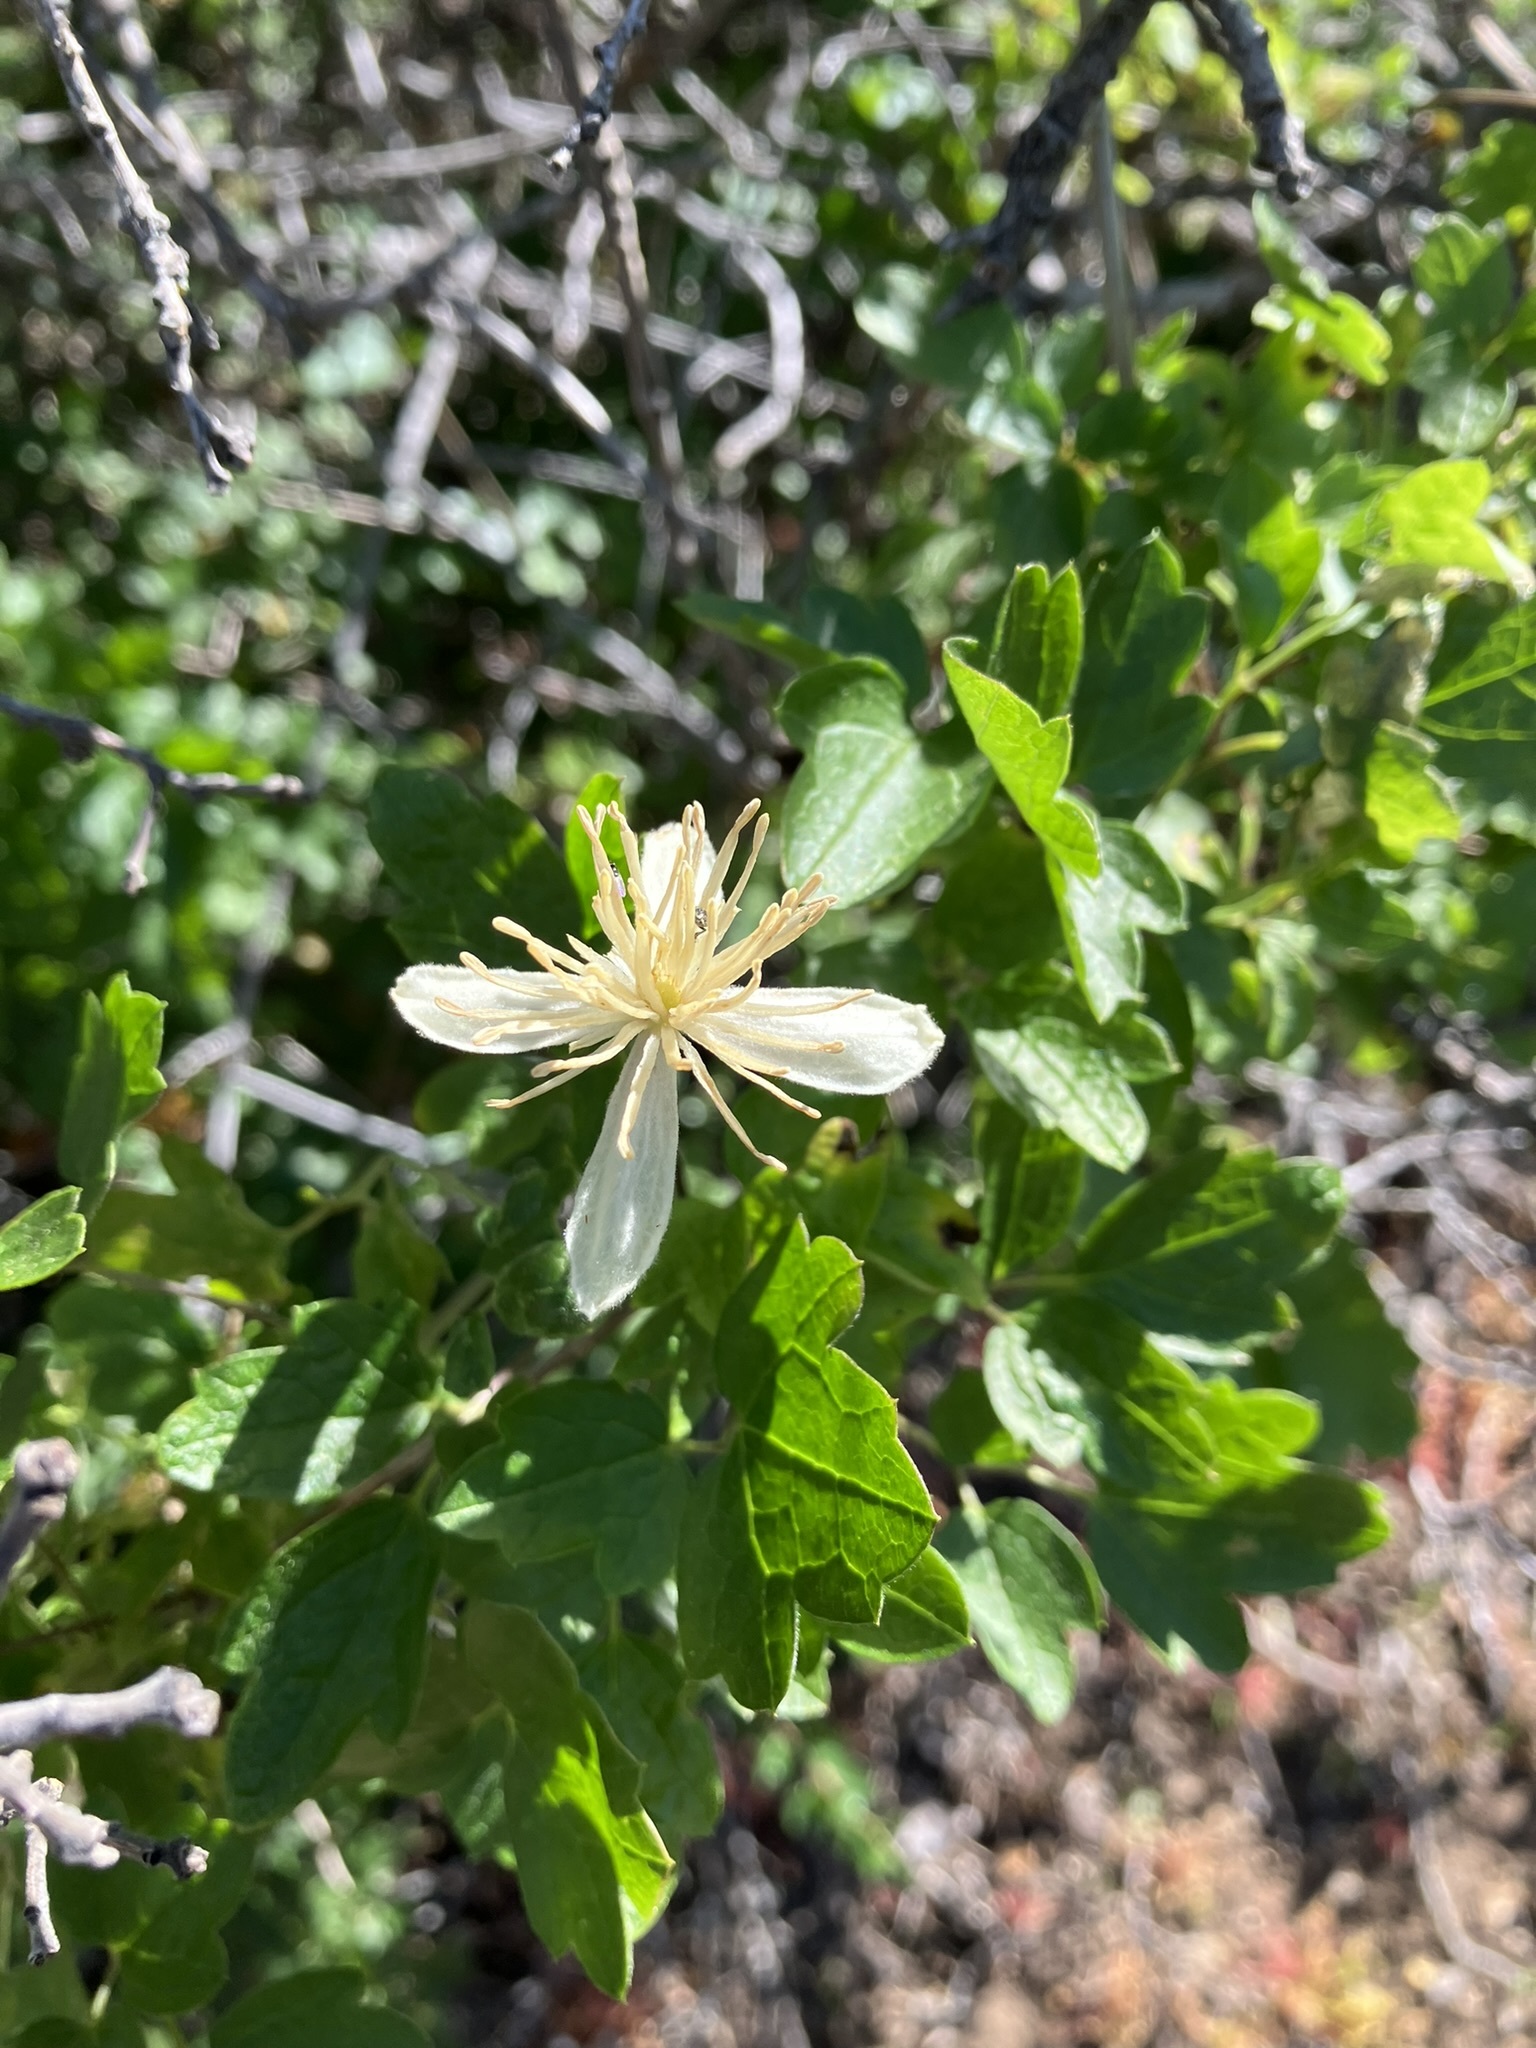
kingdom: Plantae
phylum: Tracheophyta
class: Magnoliopsida
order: Ranunculales
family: Ranunculaceae
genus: Clematis
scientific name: Clematis lasiantha
